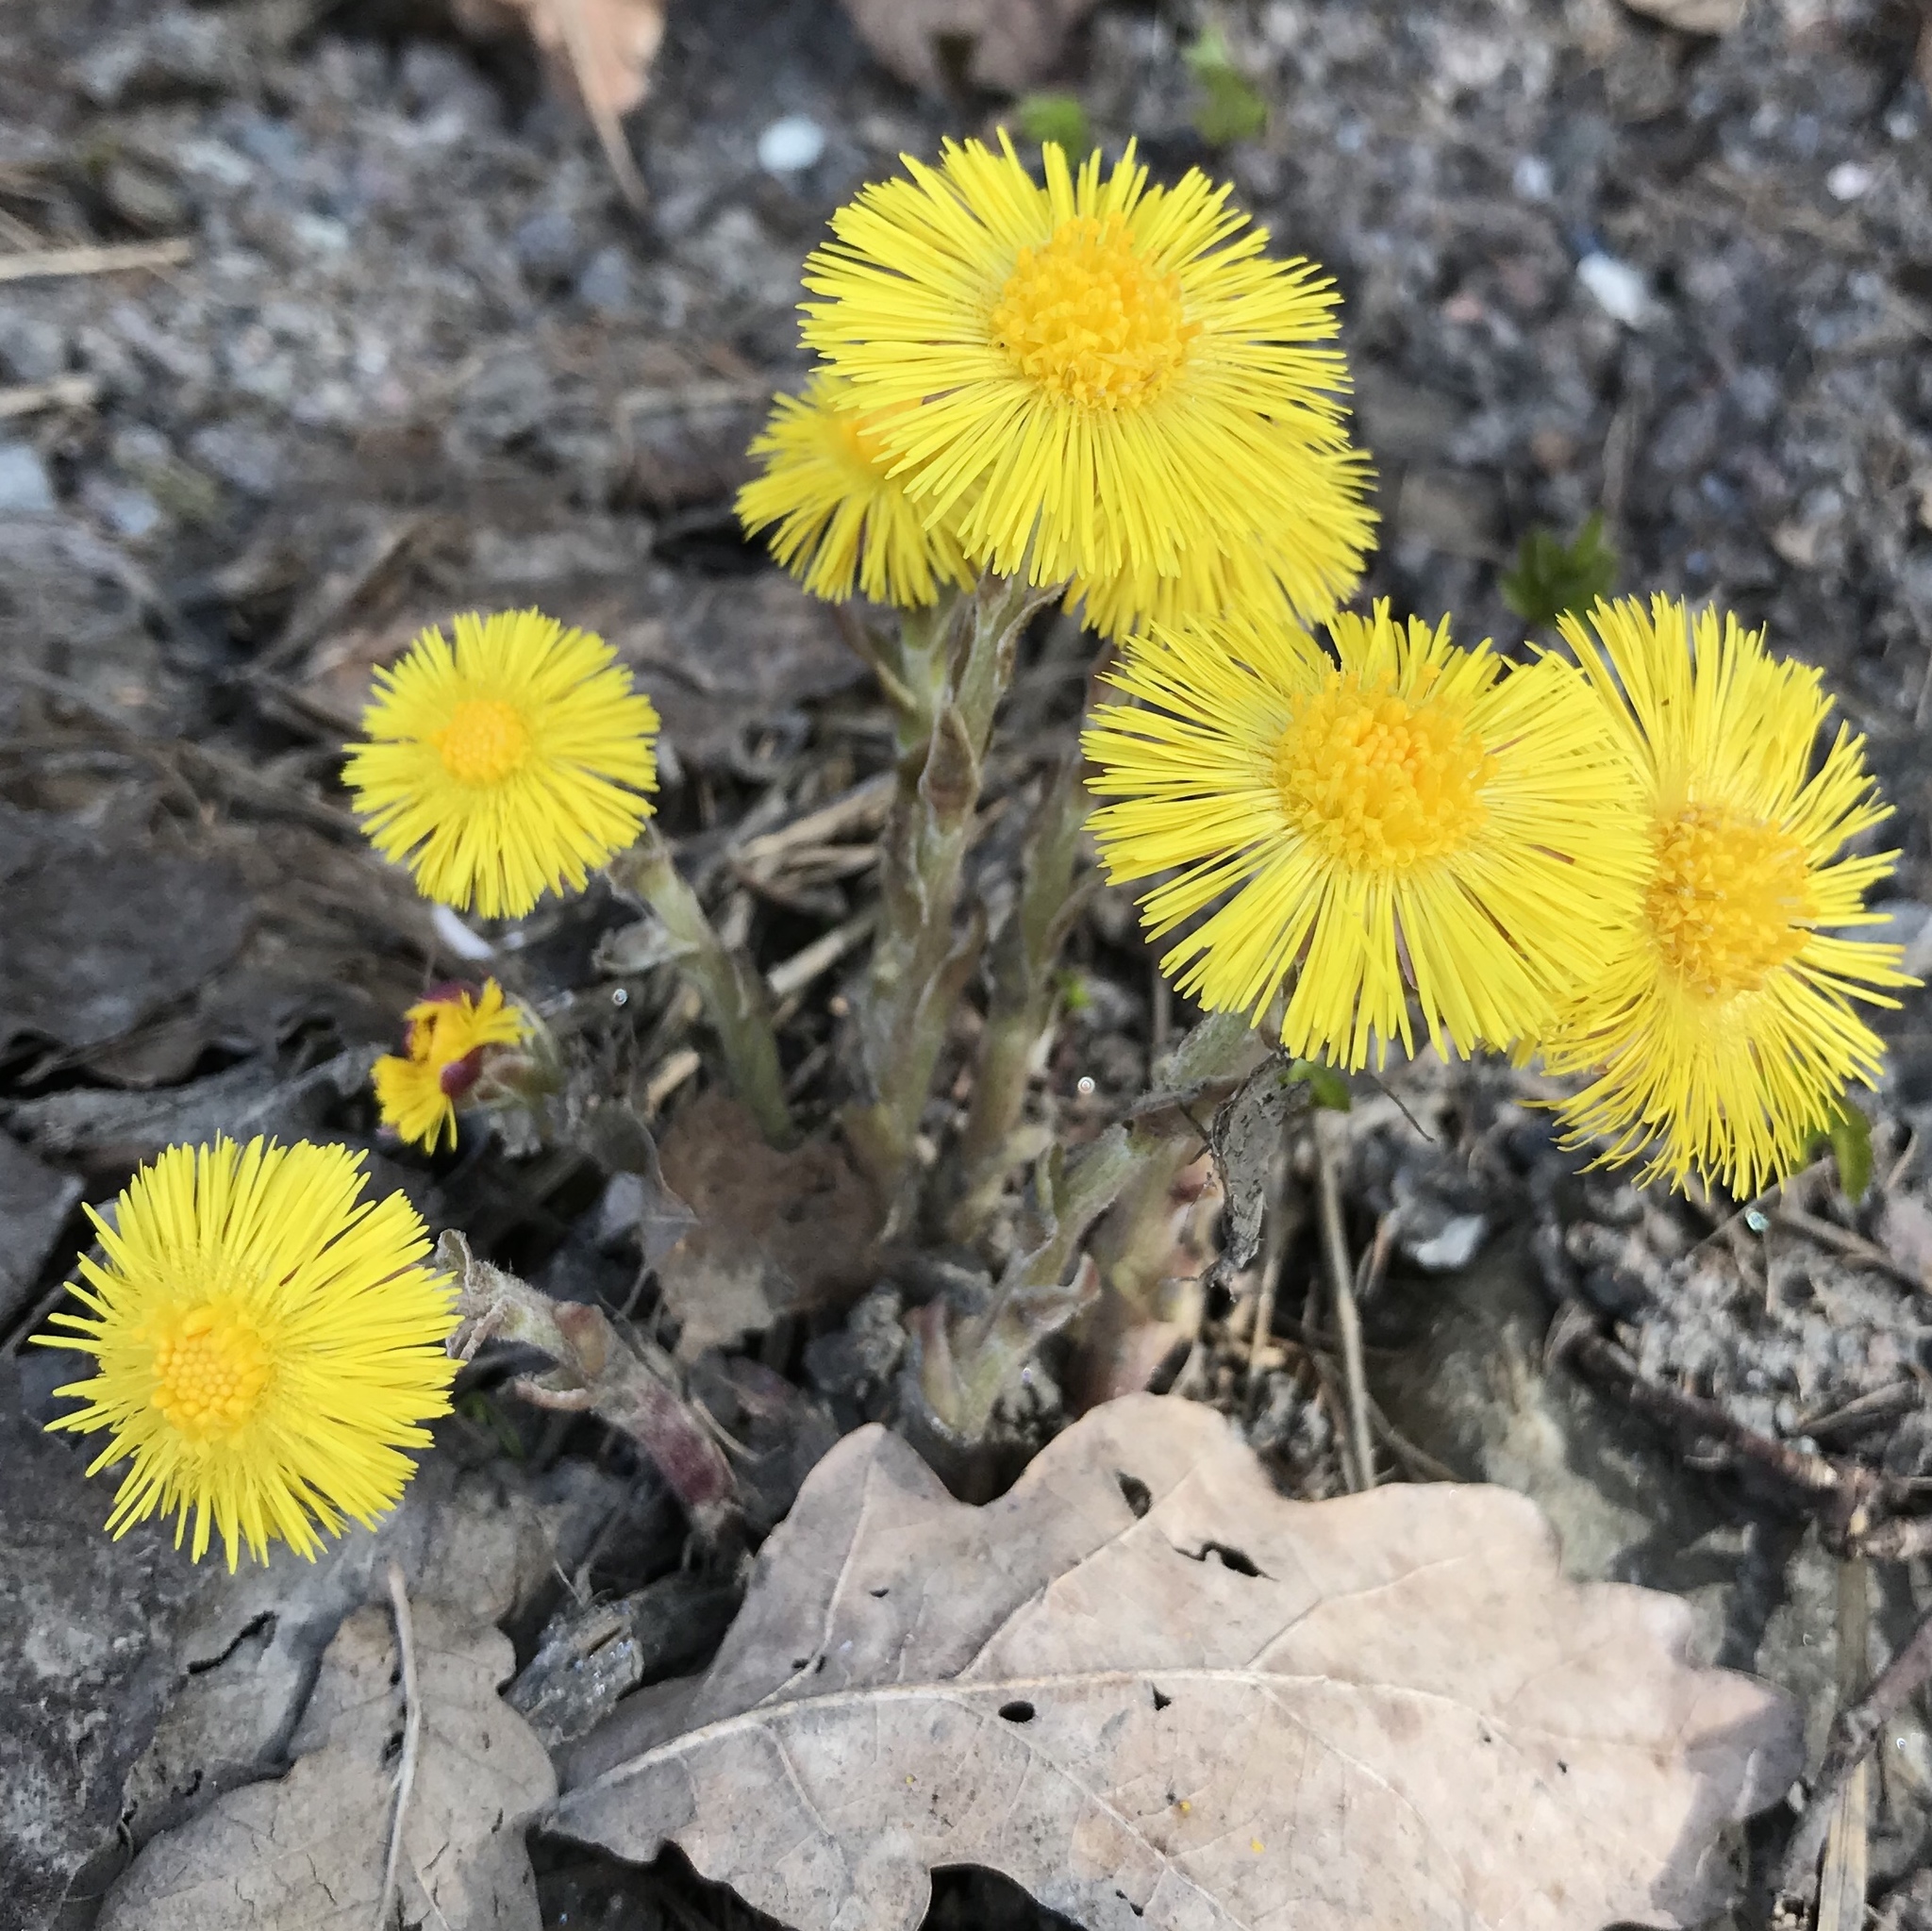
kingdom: Plantae
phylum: Tracheophyta
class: Magnoliopsida
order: Asterales
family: Asteraceae
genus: Tussilago
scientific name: Tussilago farfara
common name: Coltsfoot
